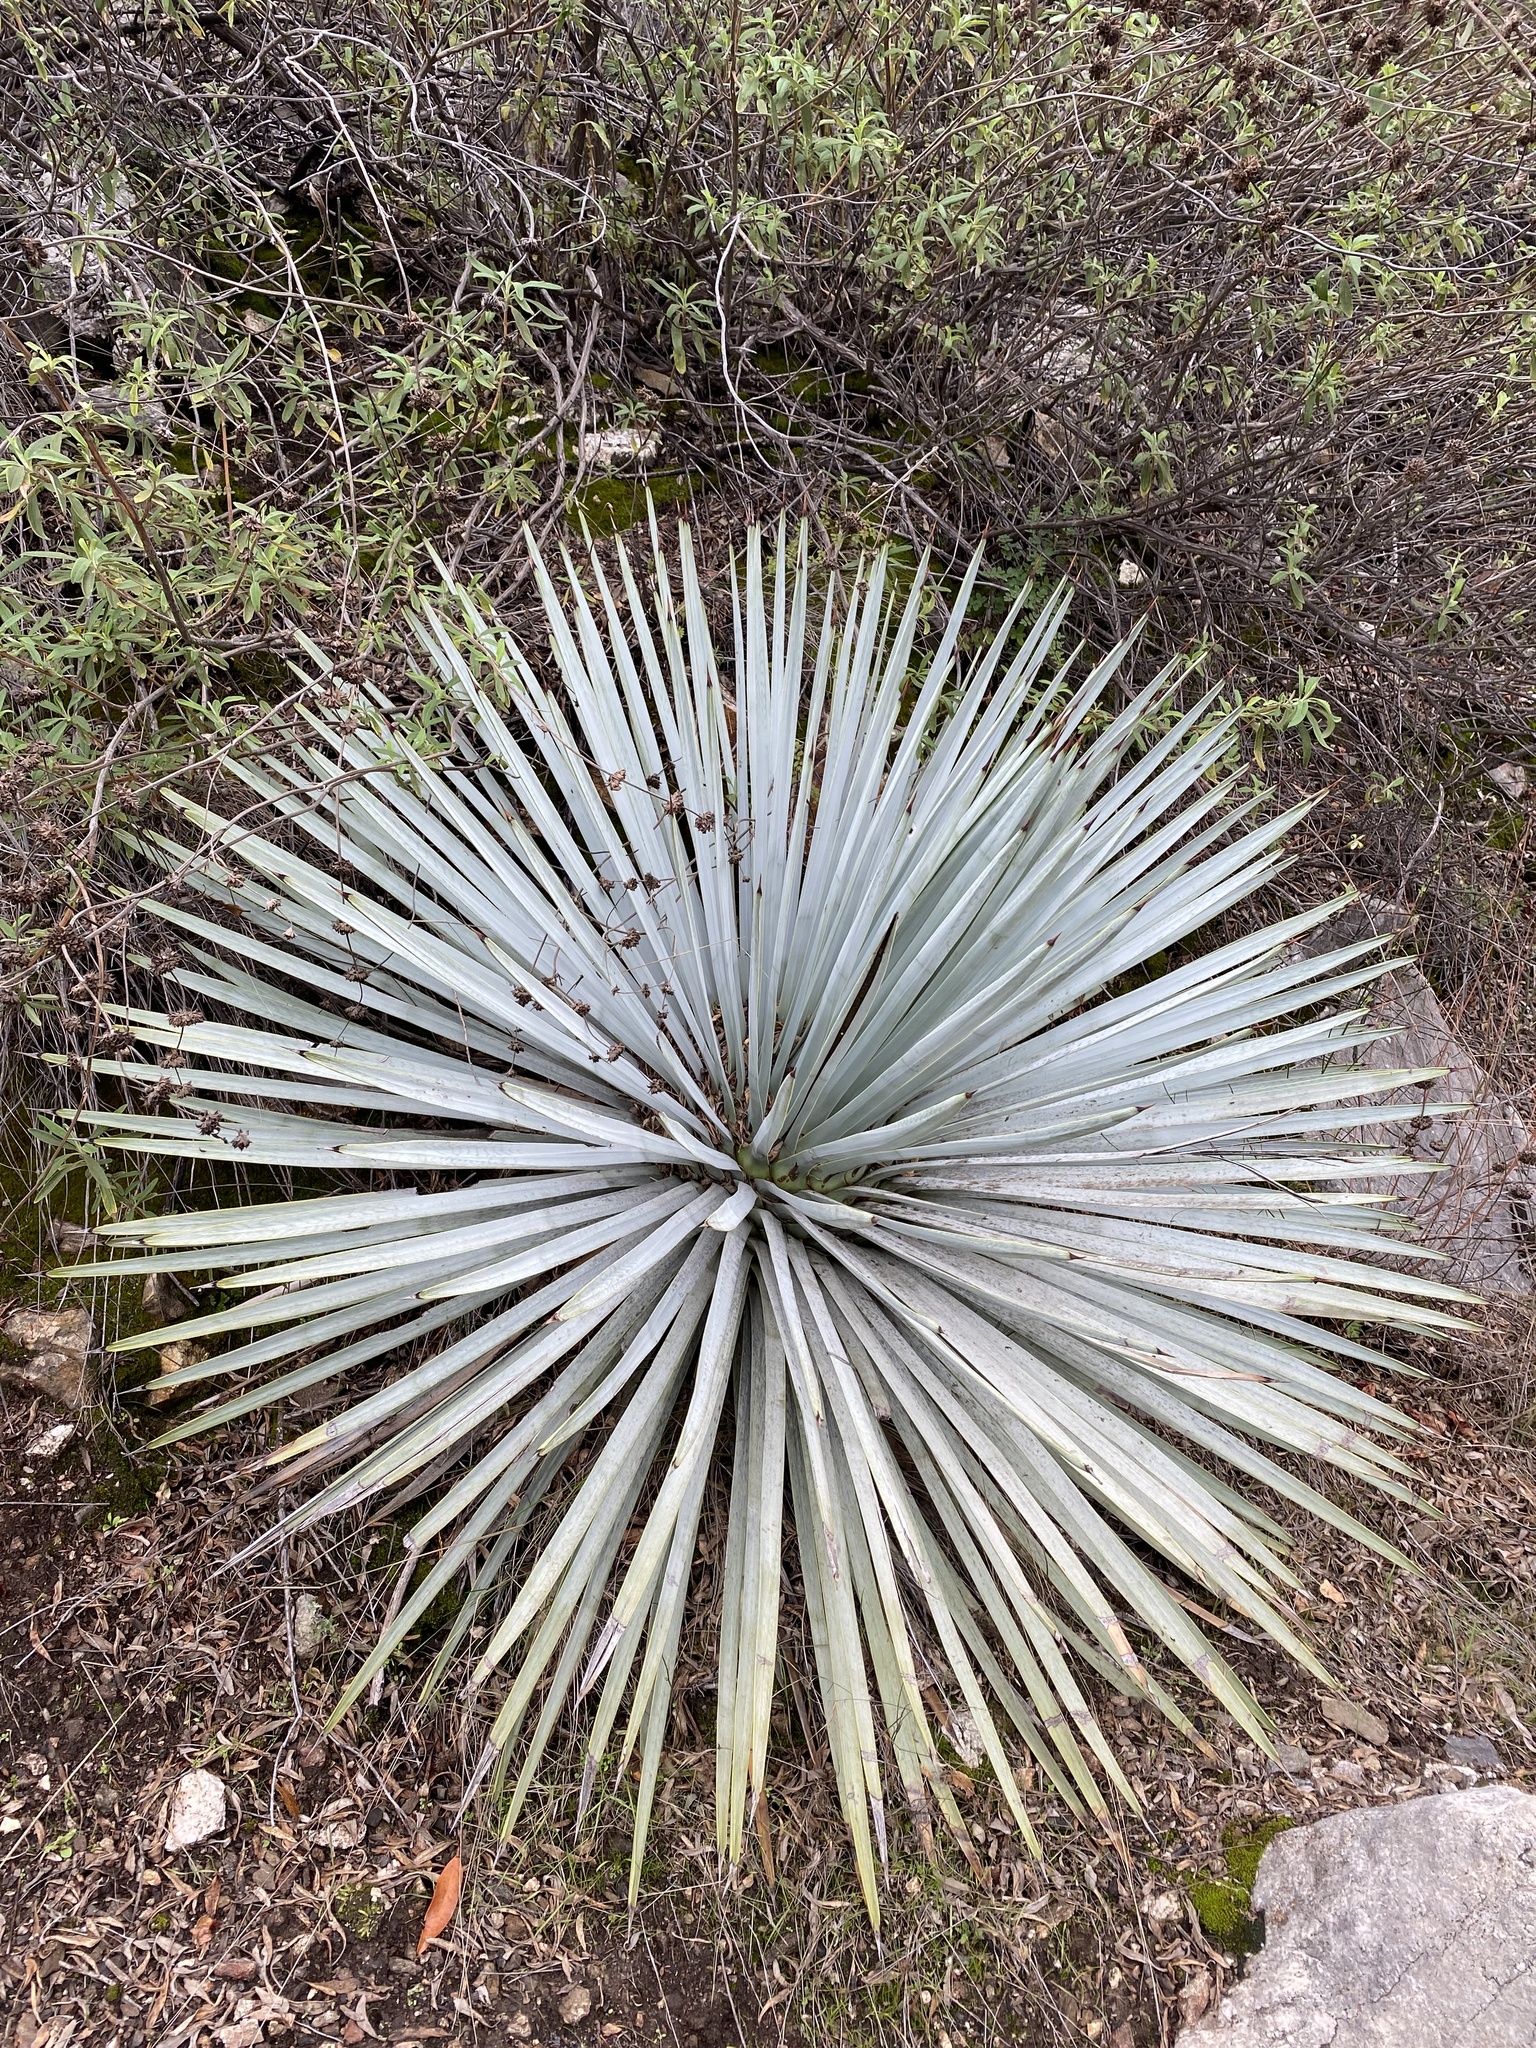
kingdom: Plantae
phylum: Tracheophyta
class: Liliopsida
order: Asparagales
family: Asparagaceae
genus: Hesperoyucca
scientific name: Hesperoyucca whipplei
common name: Our lord's-candle
